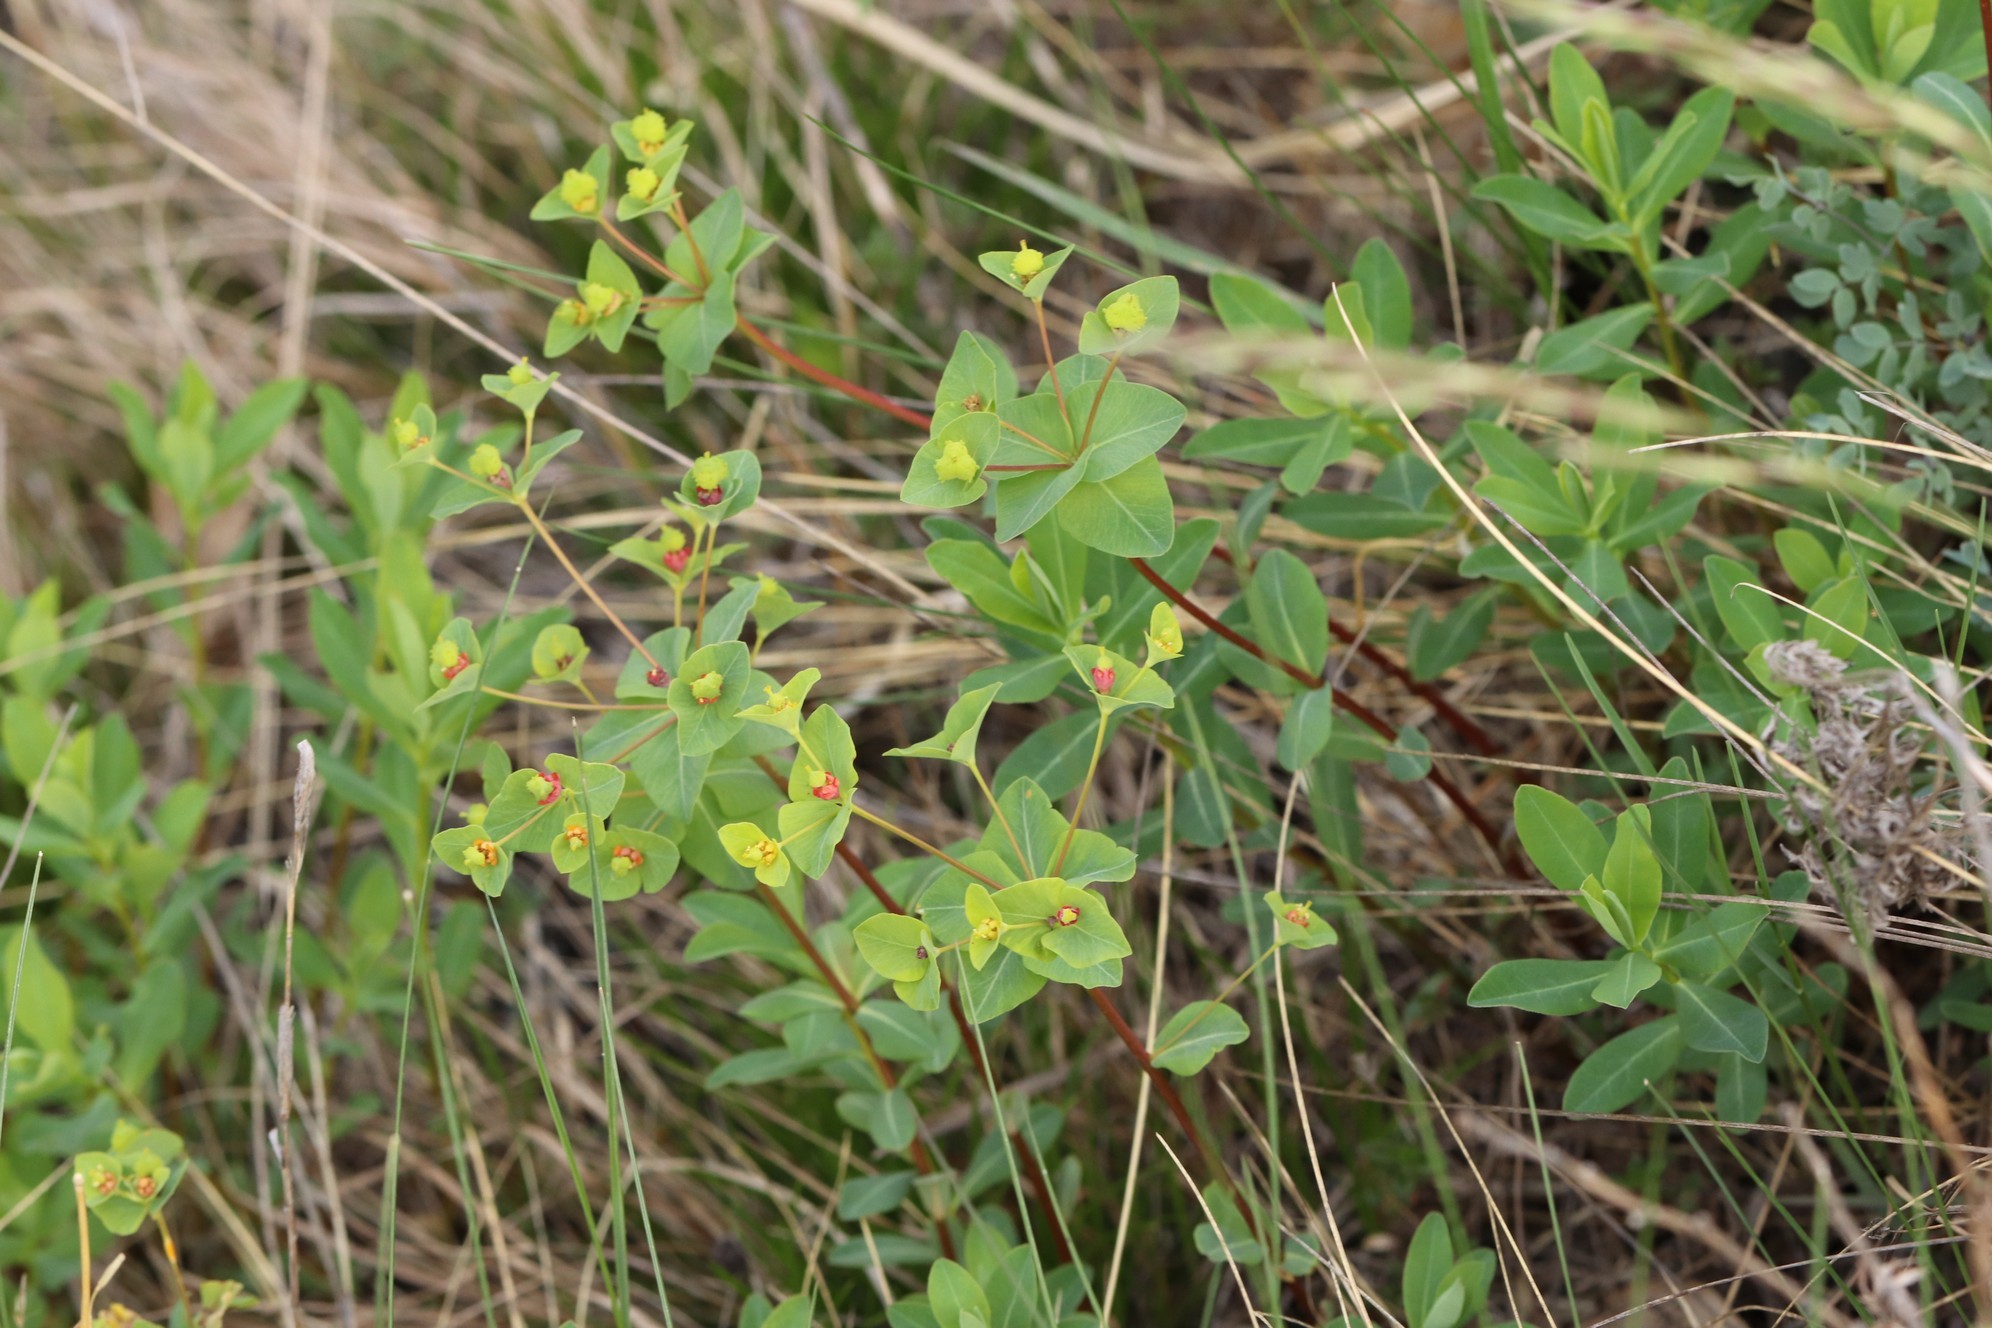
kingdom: Plantae
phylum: Tracheophyta
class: Magnoliopsida
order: Malpighiales
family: Euphorbiaceae
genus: Euphorbia
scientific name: Euphorbia altaica
